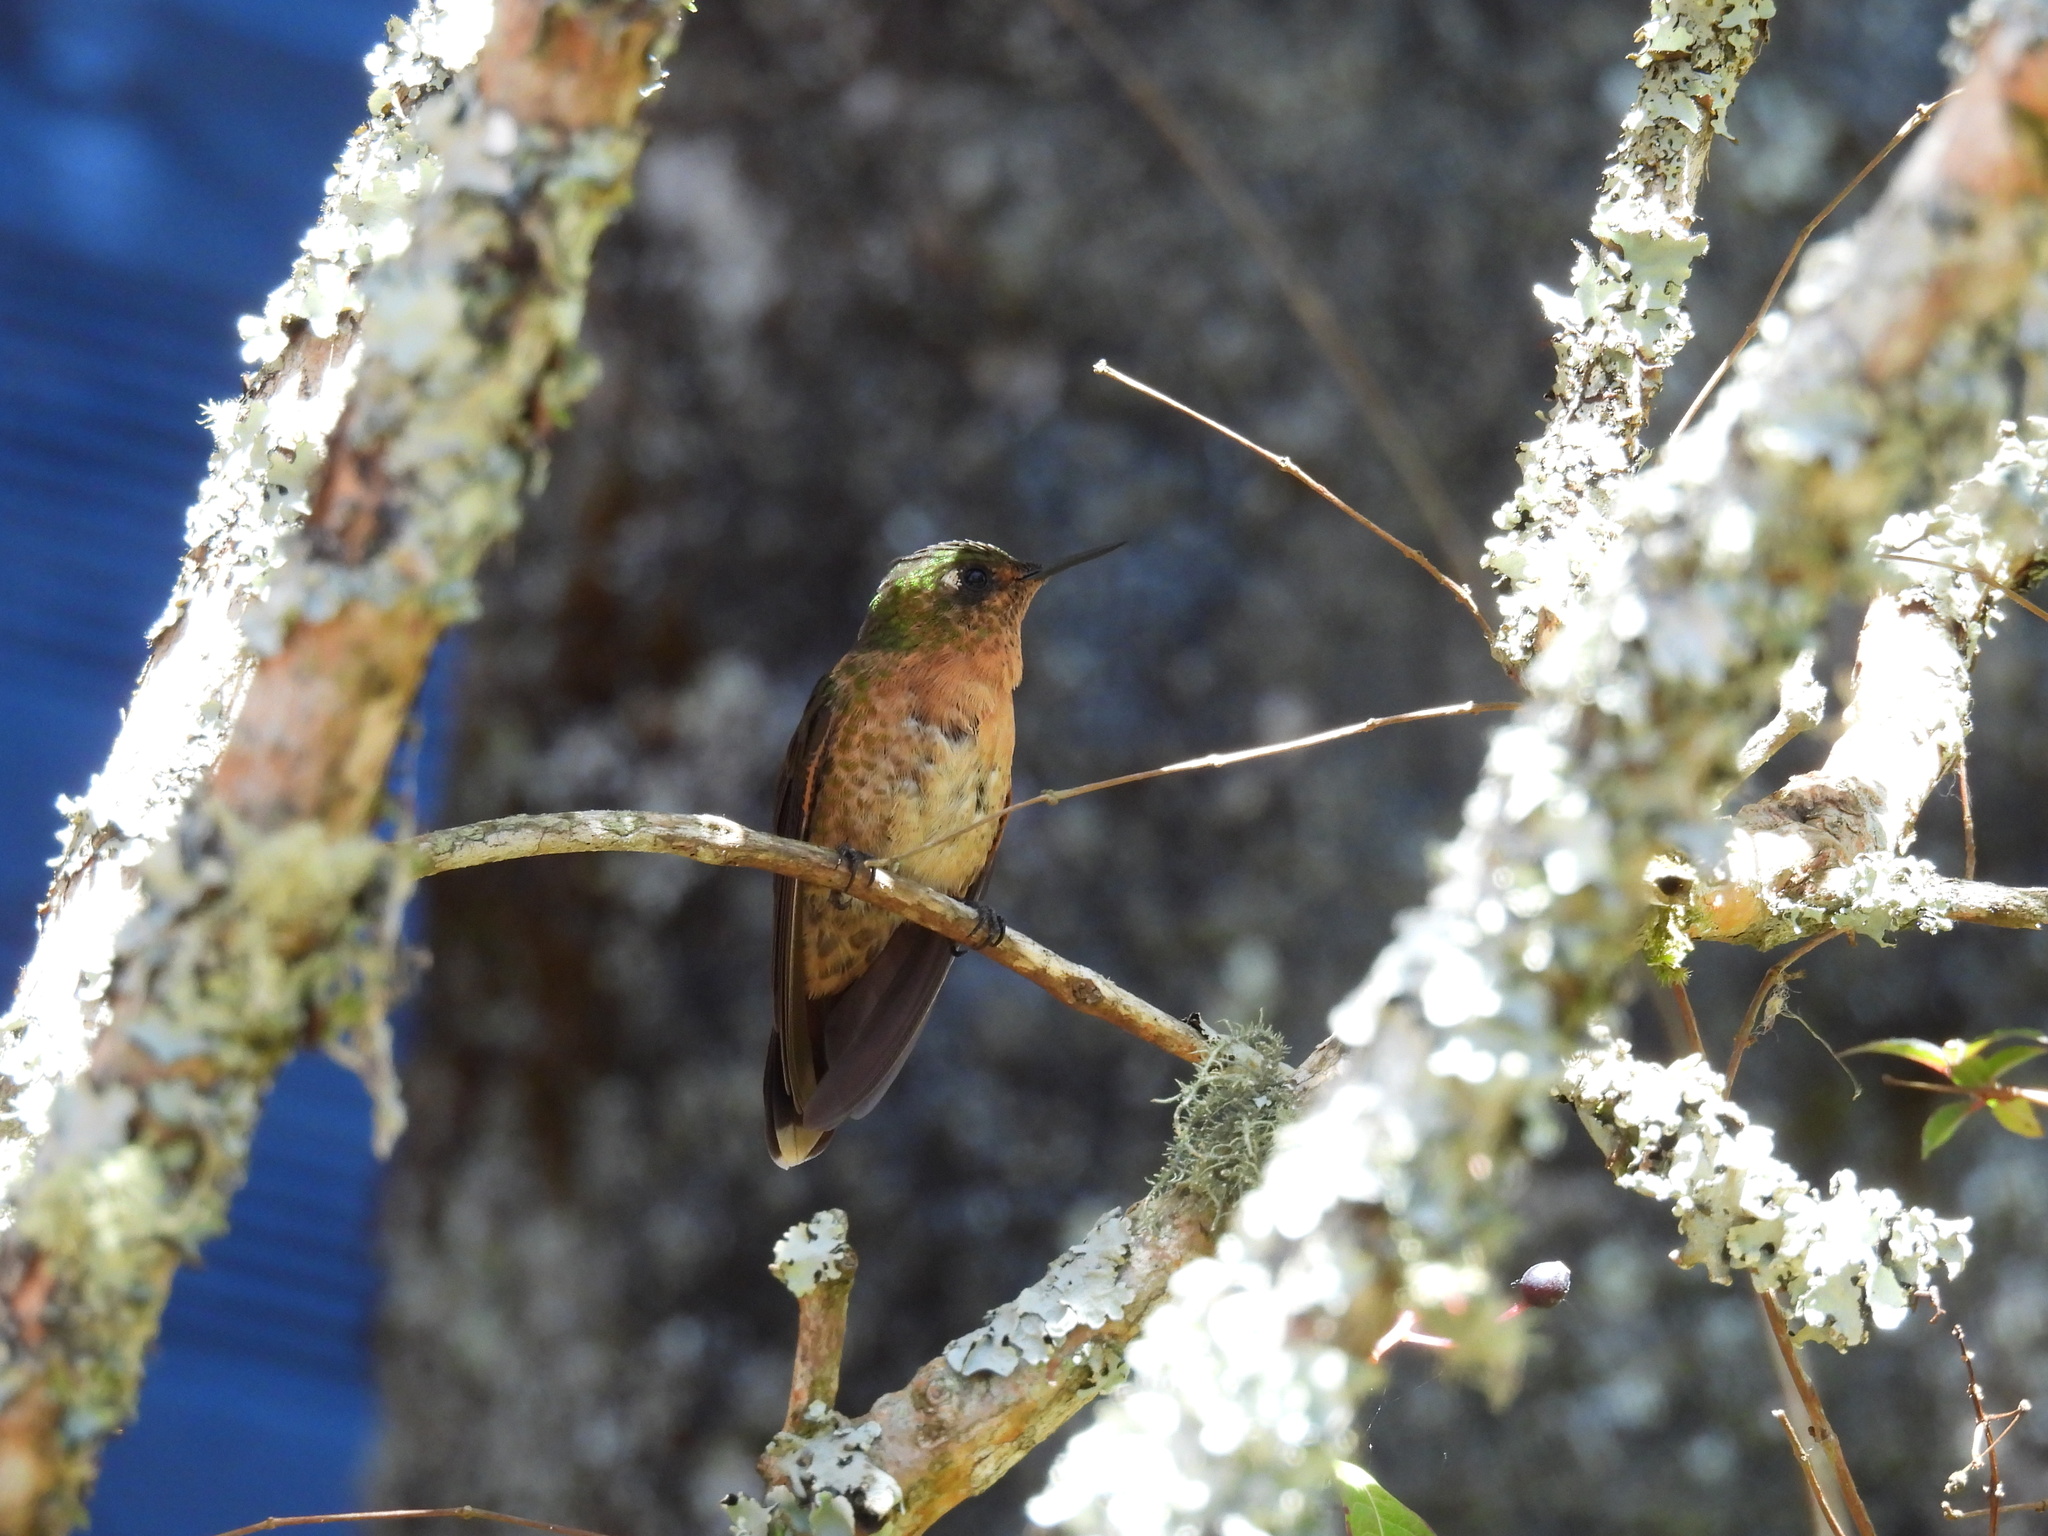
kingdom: Animalia
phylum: Chordata
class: Aves
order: Apodiformes
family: Trochilidae
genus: Metallura
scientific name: Metallura tyrianthina
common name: Tyrian metaltail
